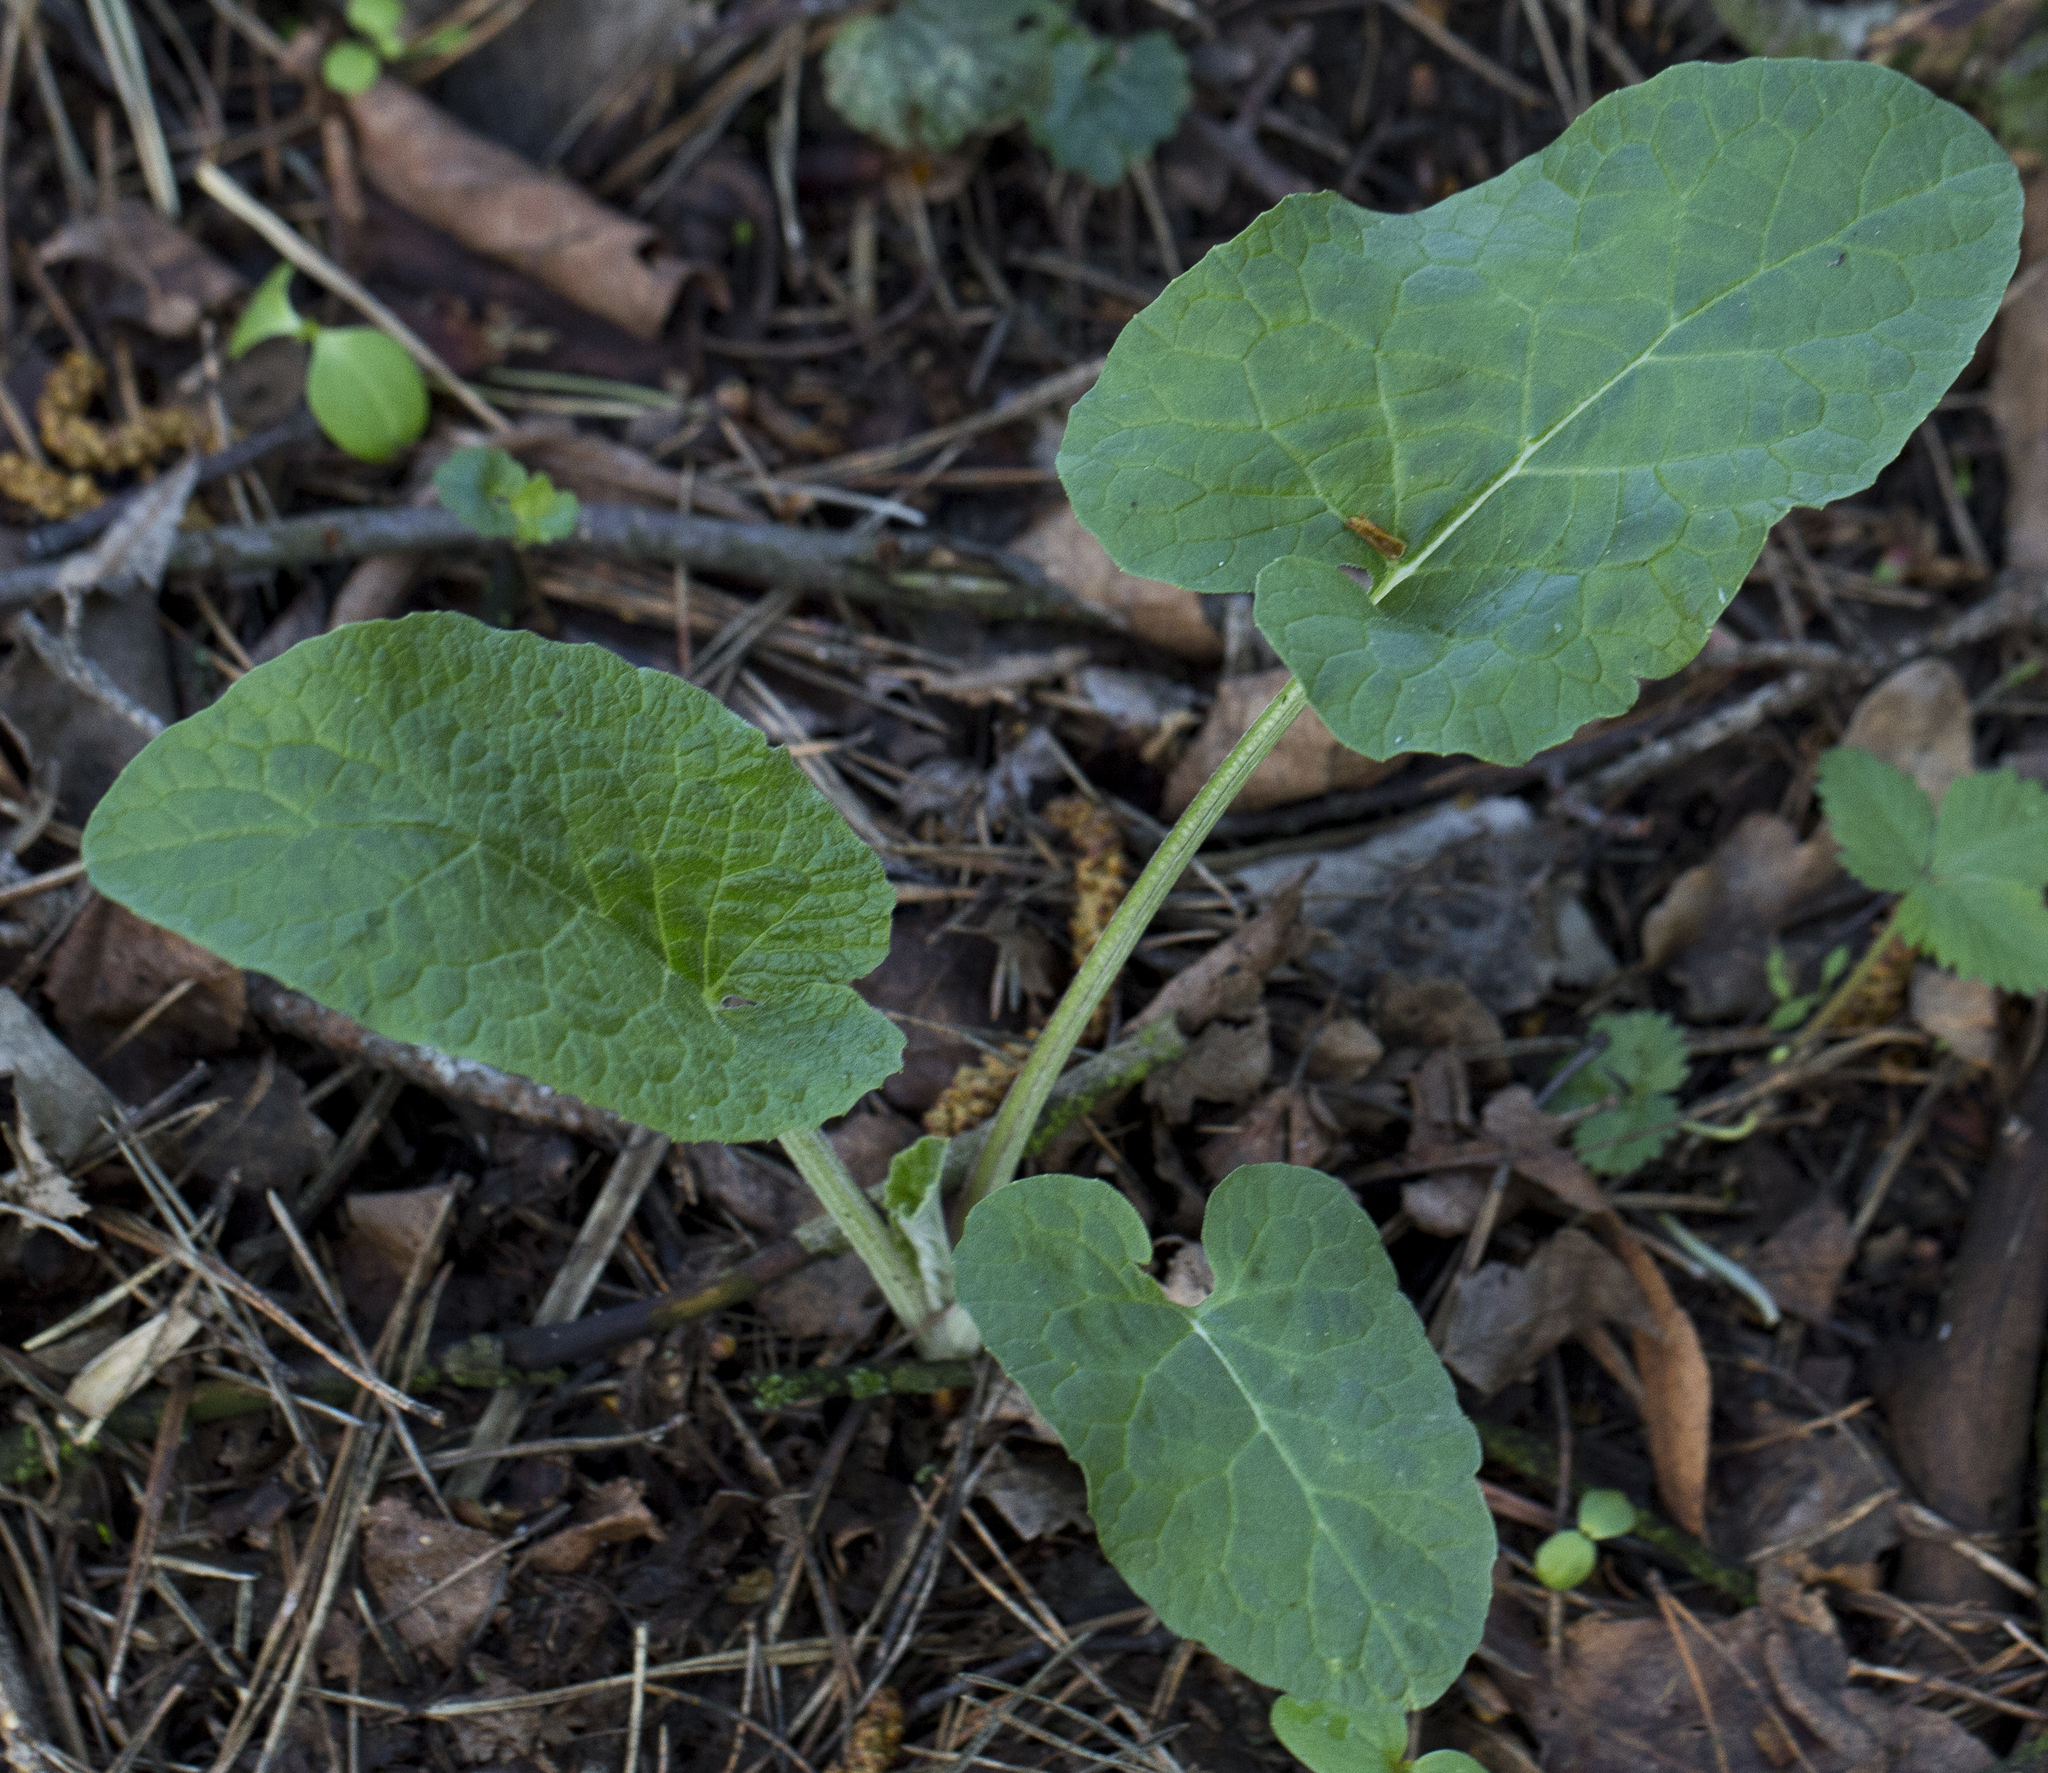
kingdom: Plantae
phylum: Tracheophyta
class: Magnoliopsida
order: Asterales
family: Asteraceae
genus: Arctium
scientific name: Arctium
